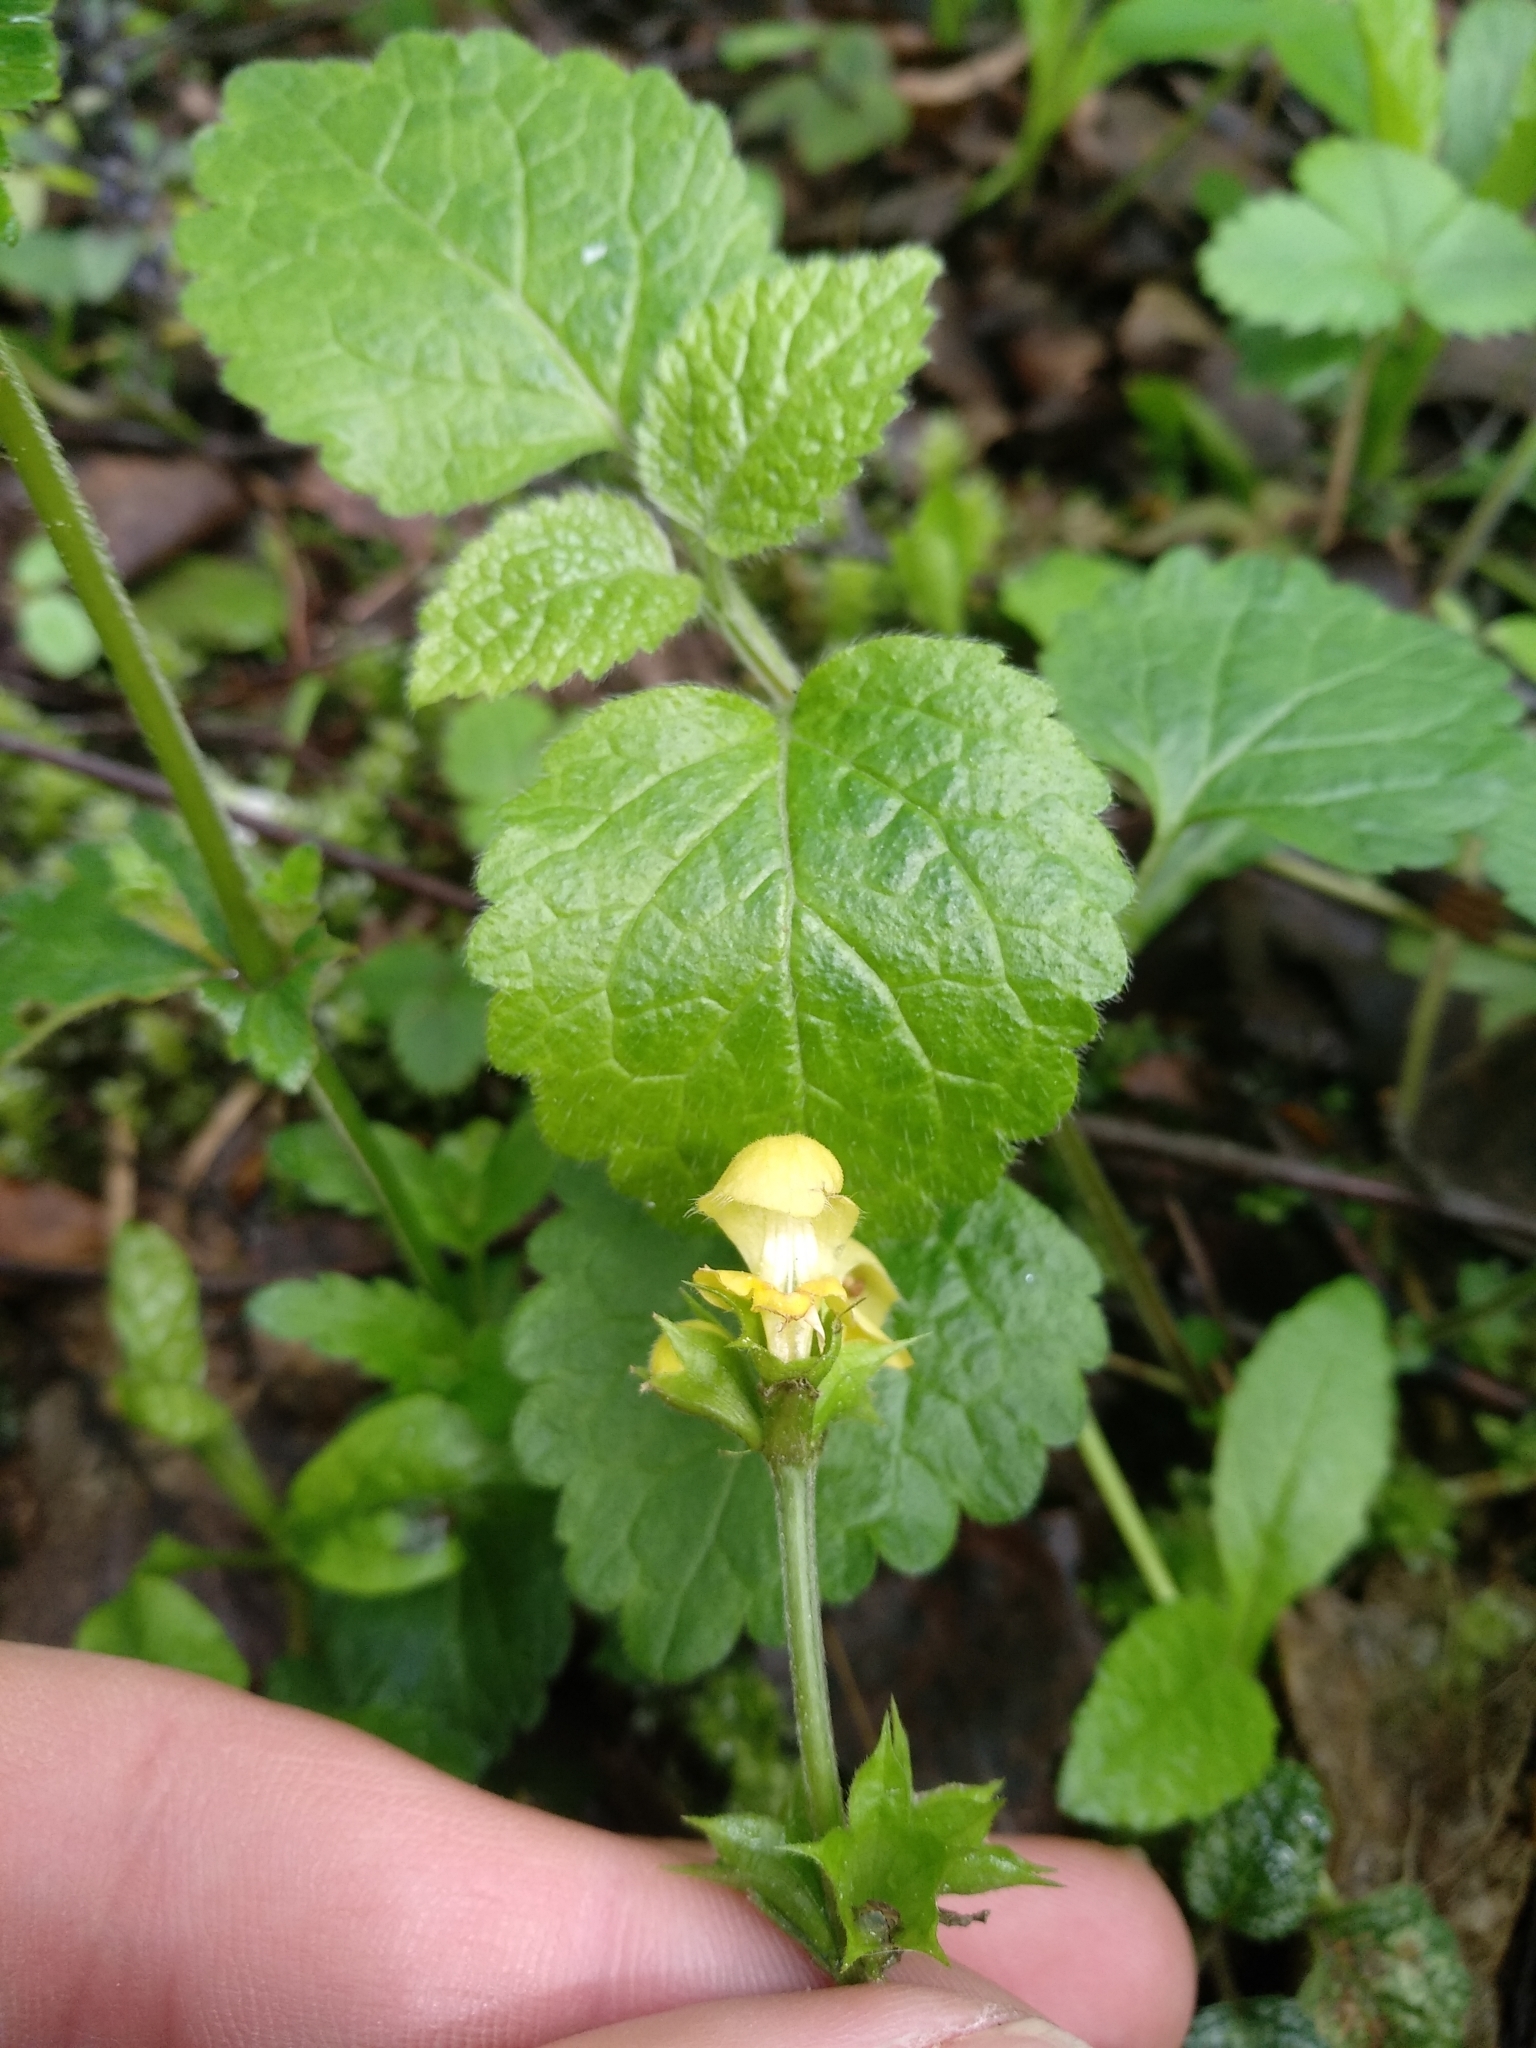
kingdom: Plantae
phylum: Tracheophyta
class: Magnoliopsida
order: Lamiales
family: Lamiaceae
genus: Lamium
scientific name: Lamium galeobdolon
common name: Yellow archangel
